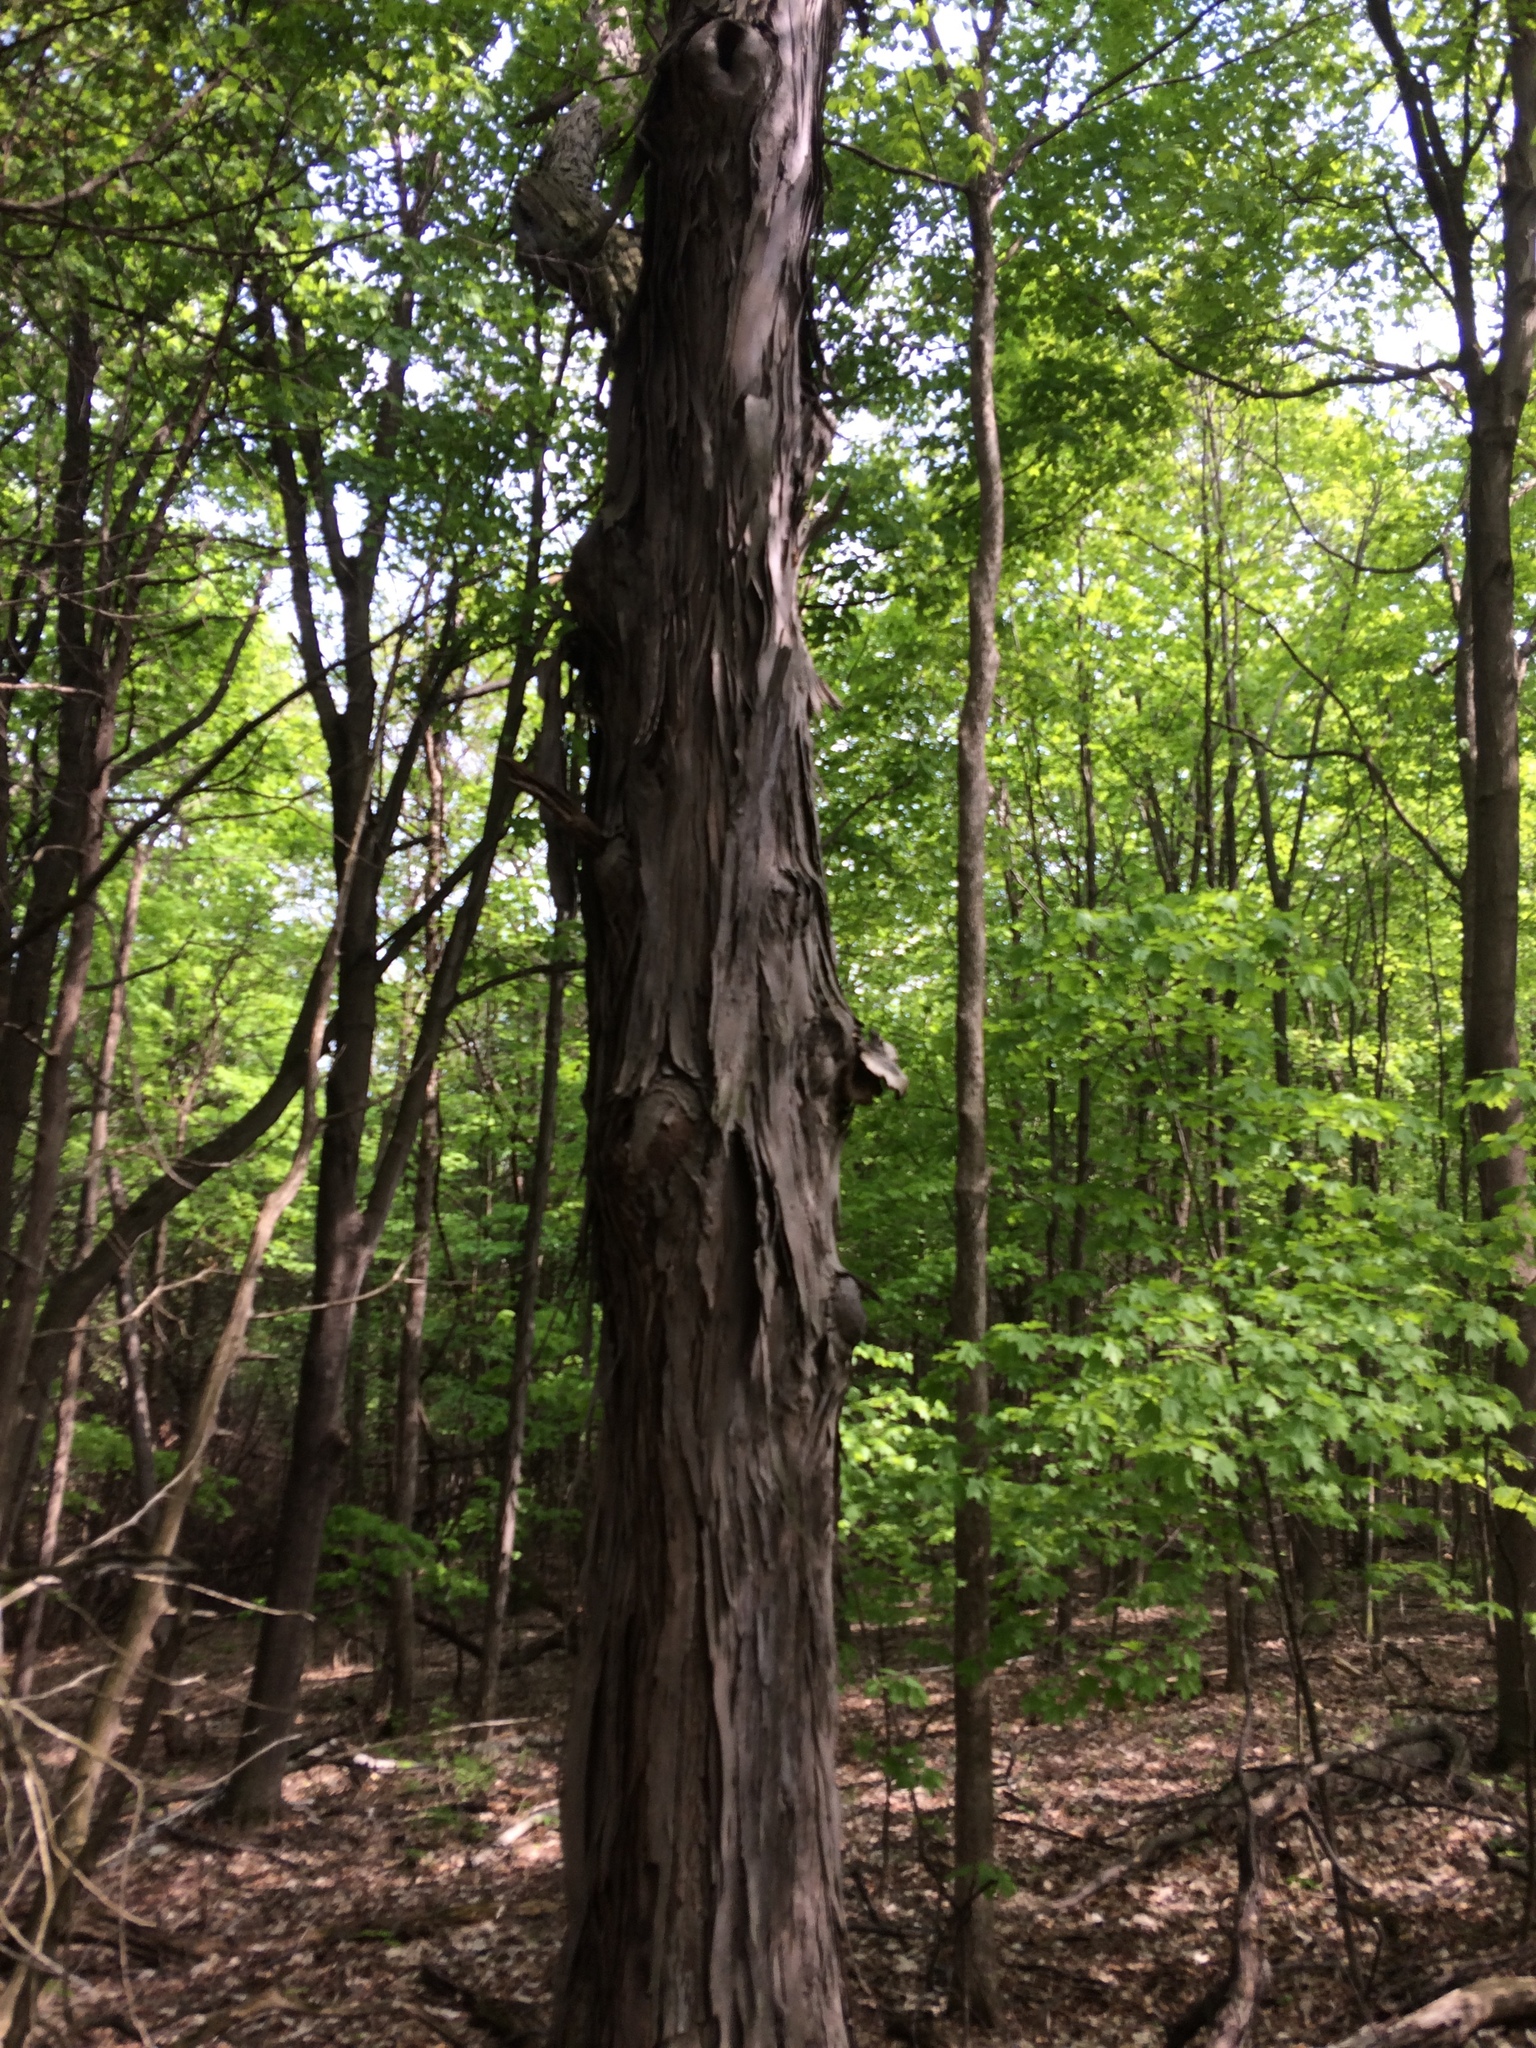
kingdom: Plantae
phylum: Tracheophyta
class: Magnoliopsida
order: Fagales
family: Juglandaceae
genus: Carya
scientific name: Carya ovata
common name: Shagbark hickory
